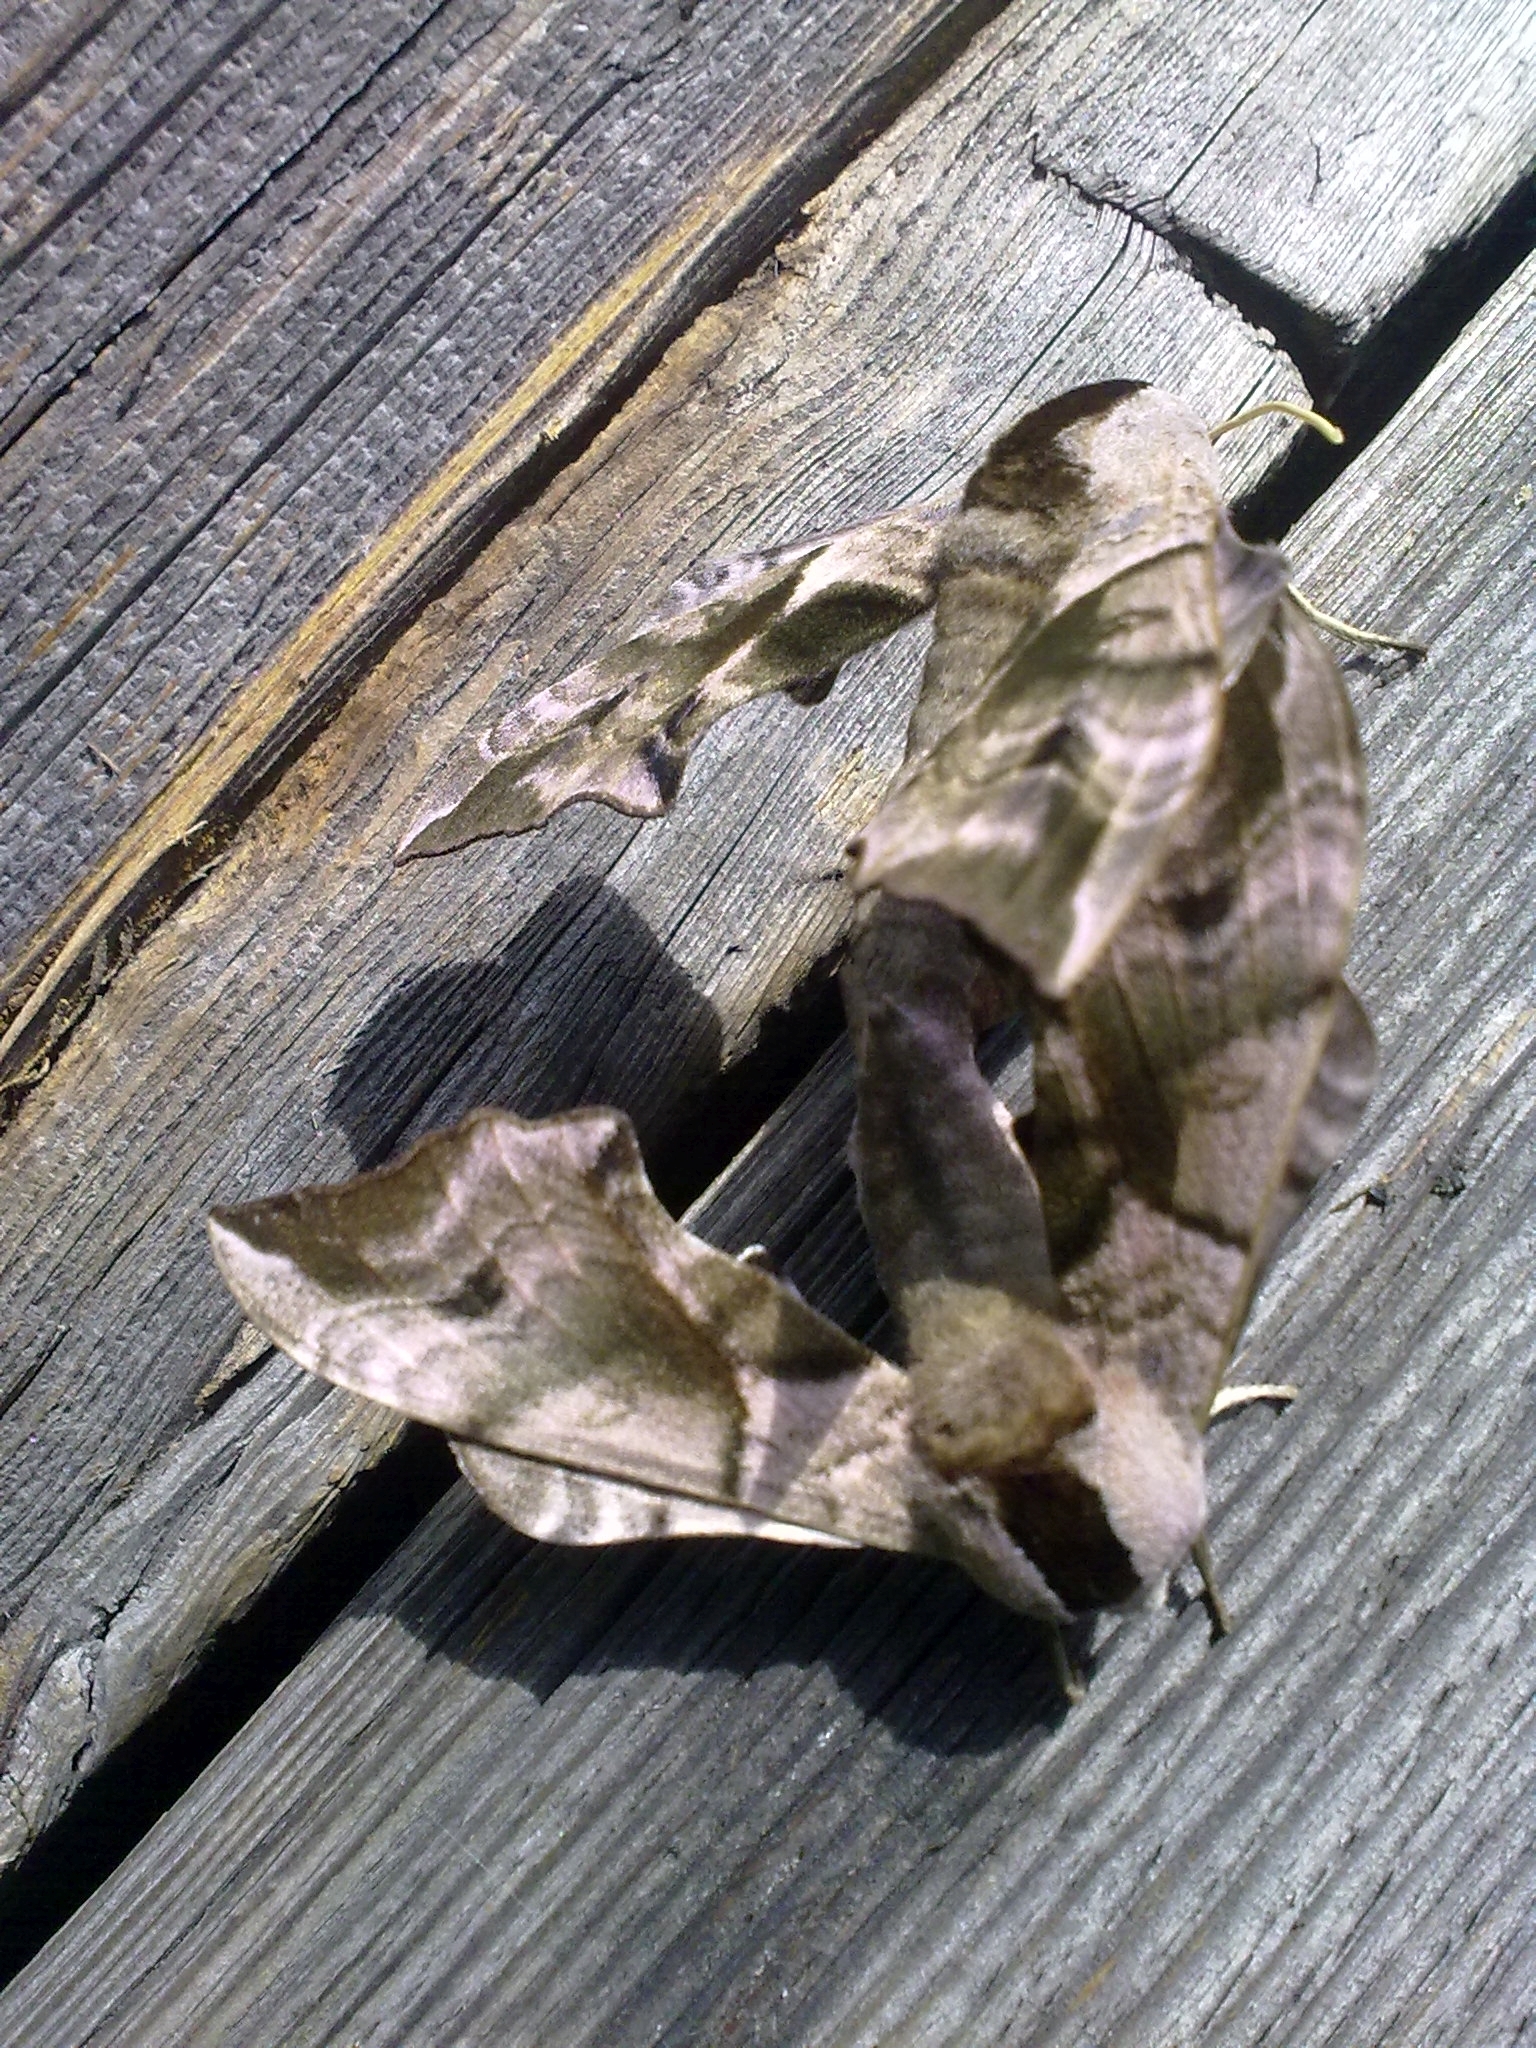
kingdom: Animalia
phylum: Arthropoda
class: Insecta
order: Lepidoptera
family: Sphingidae
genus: Smerinthus
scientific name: Smerinthus ocellata
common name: Eyed hawk-moth
